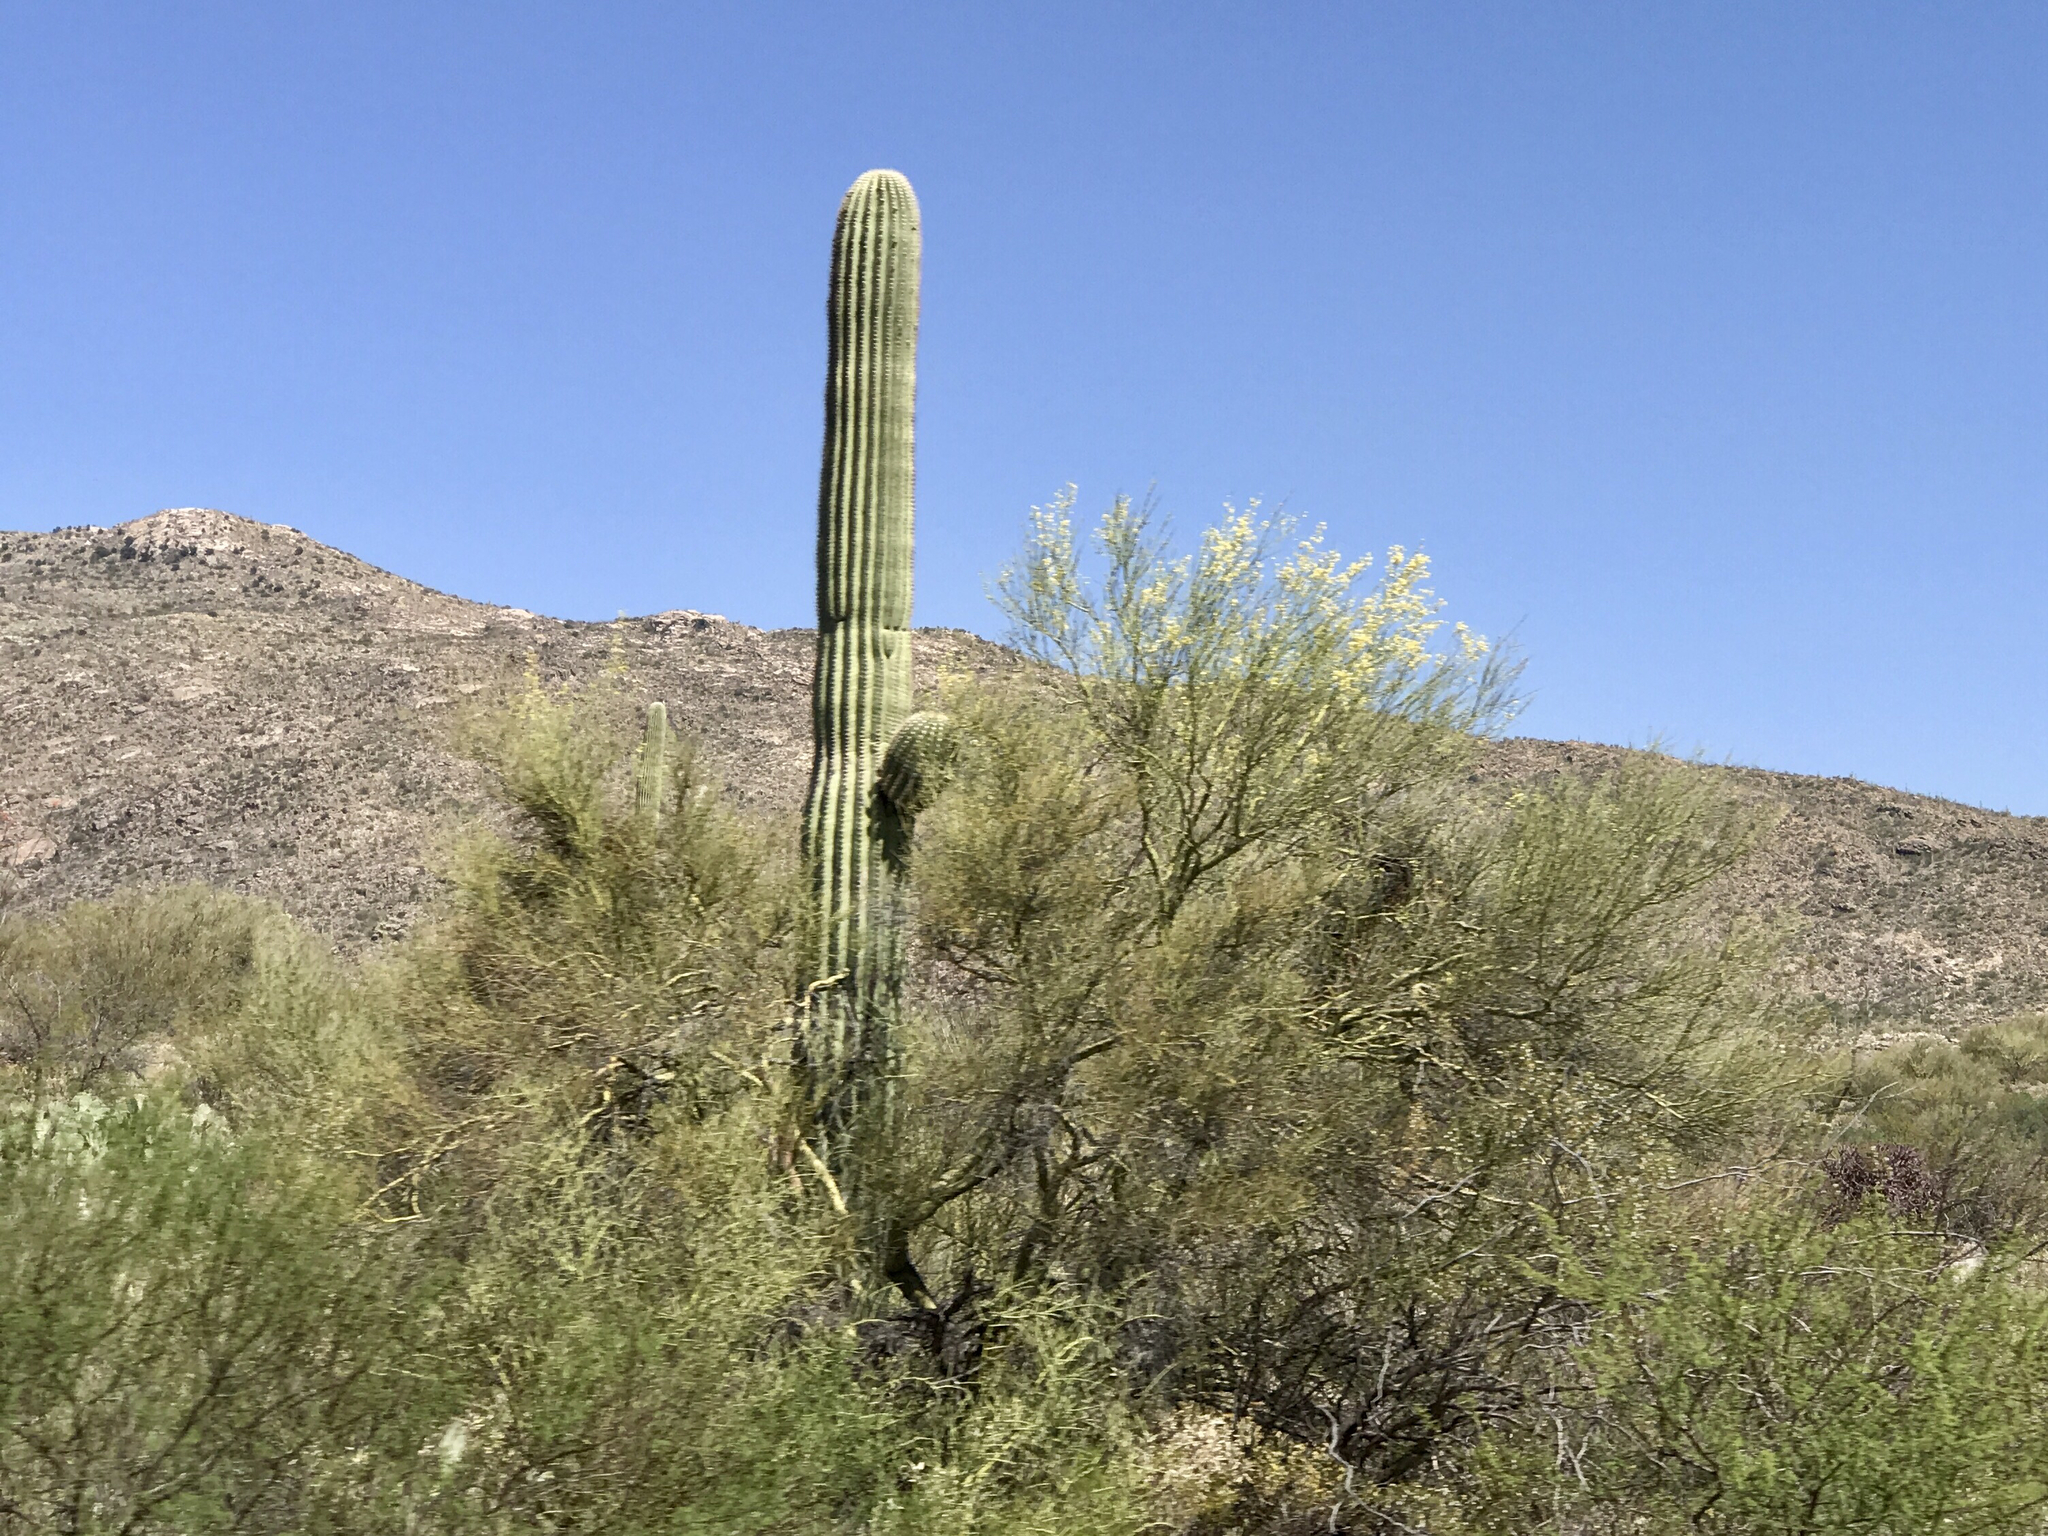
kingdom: Plantae
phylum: Tracheophyta
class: Magnoliopsida
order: Caryophyllales
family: Cactaceae
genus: Carnegiea
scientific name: Carnegiea gigantea
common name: Saguaro
